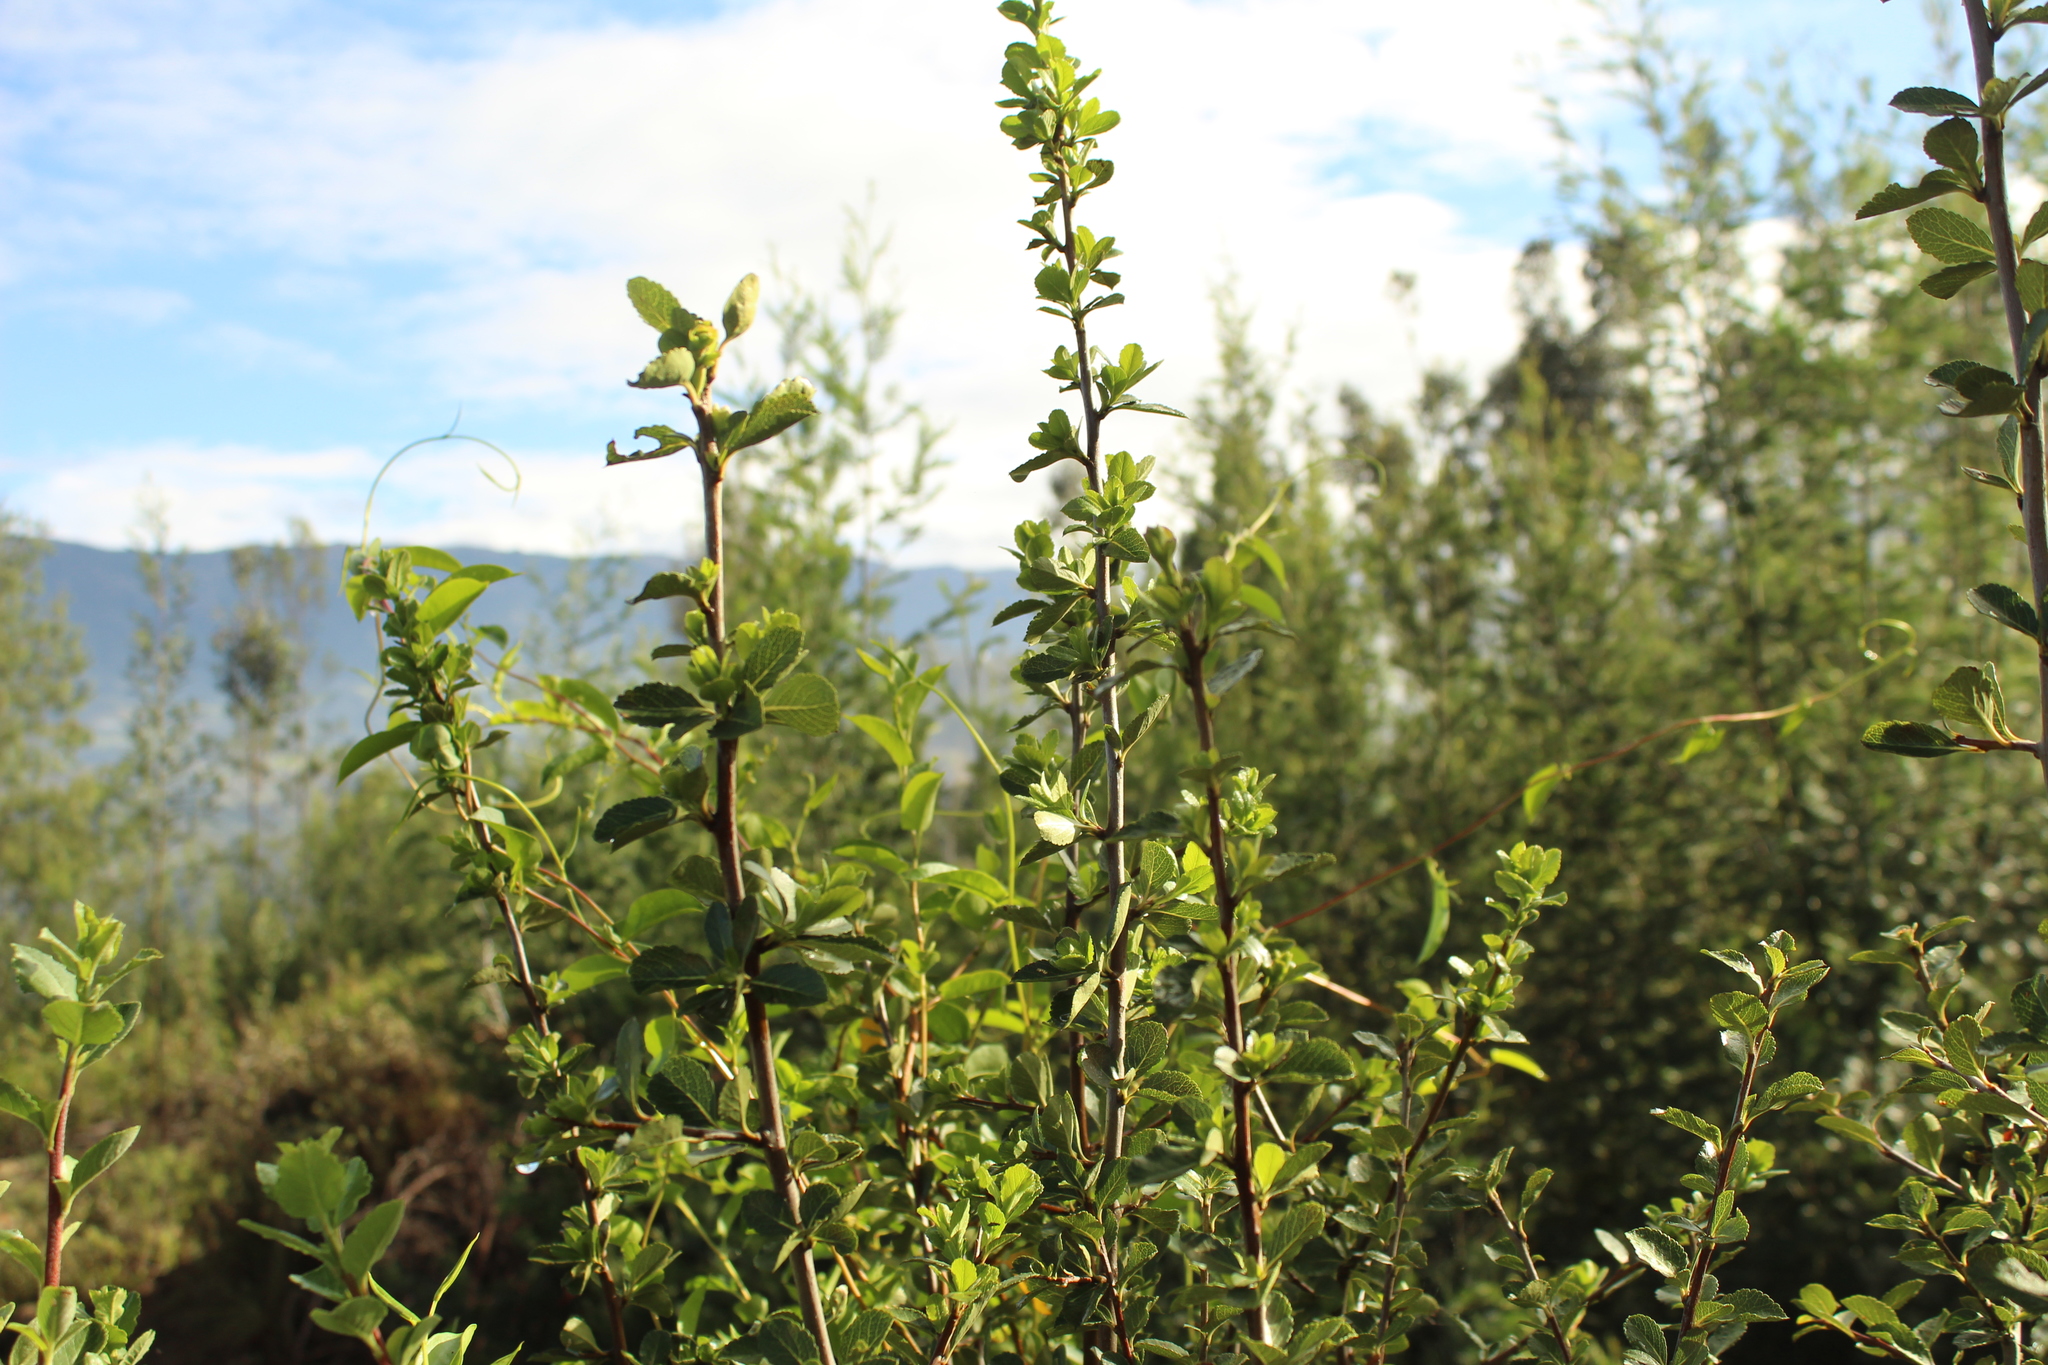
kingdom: Plantae
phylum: Tracheophyta
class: Magnoliopsida
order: Rosales
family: Rosaceae
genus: Hesperomeles
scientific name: Hesperomeles obtusifolia
